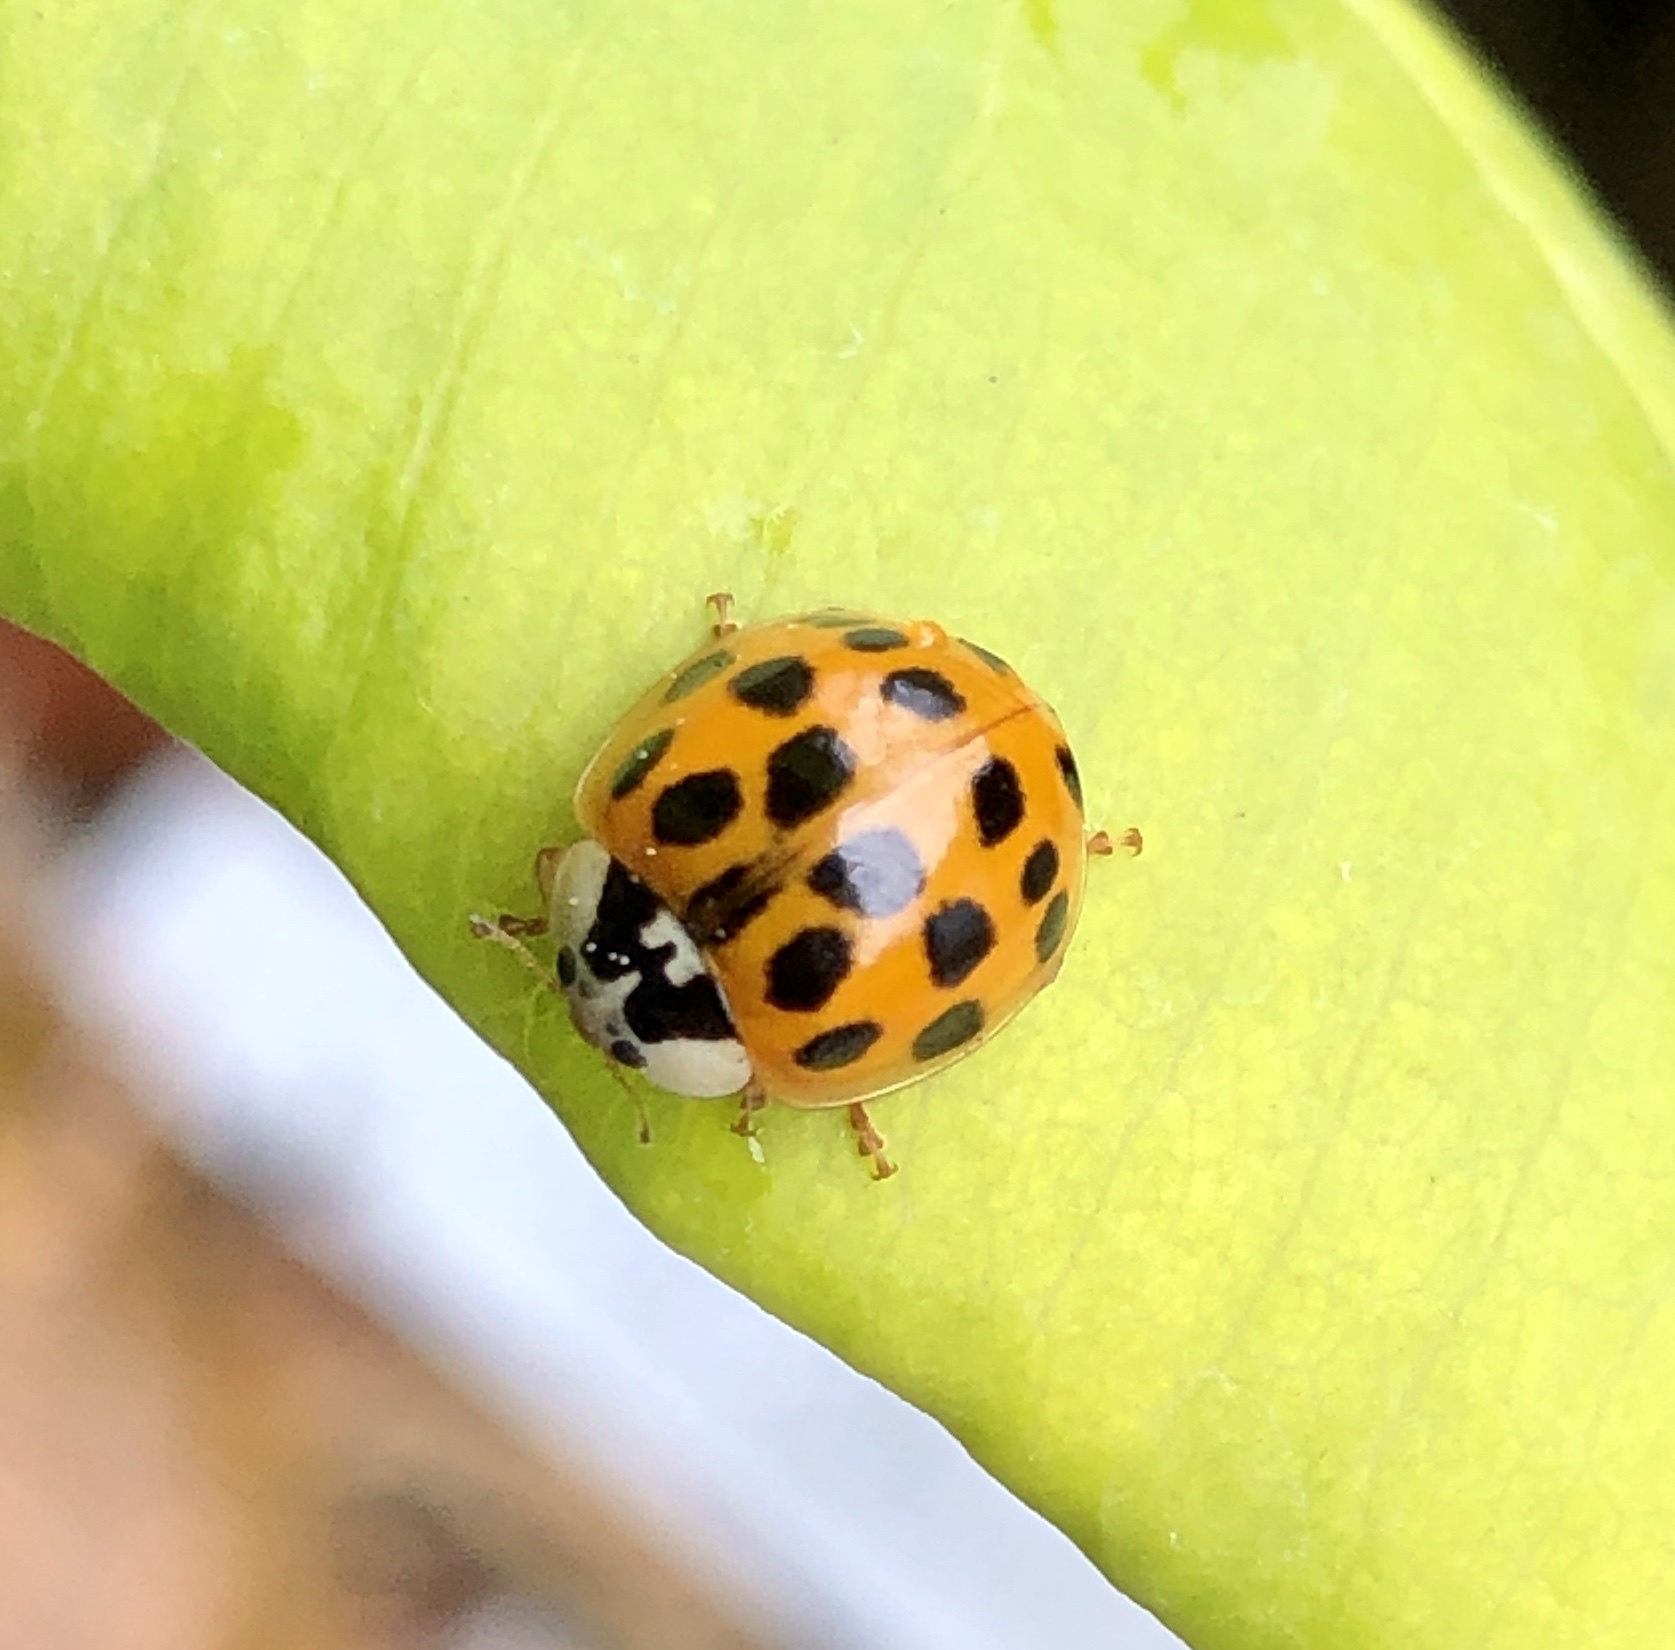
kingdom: Animalia
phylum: Arthropoda
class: Insecta
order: Coleoptera
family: Coccinellidae
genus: Harmonia
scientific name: Harmonia axyridis
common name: Harlequin ladybird
